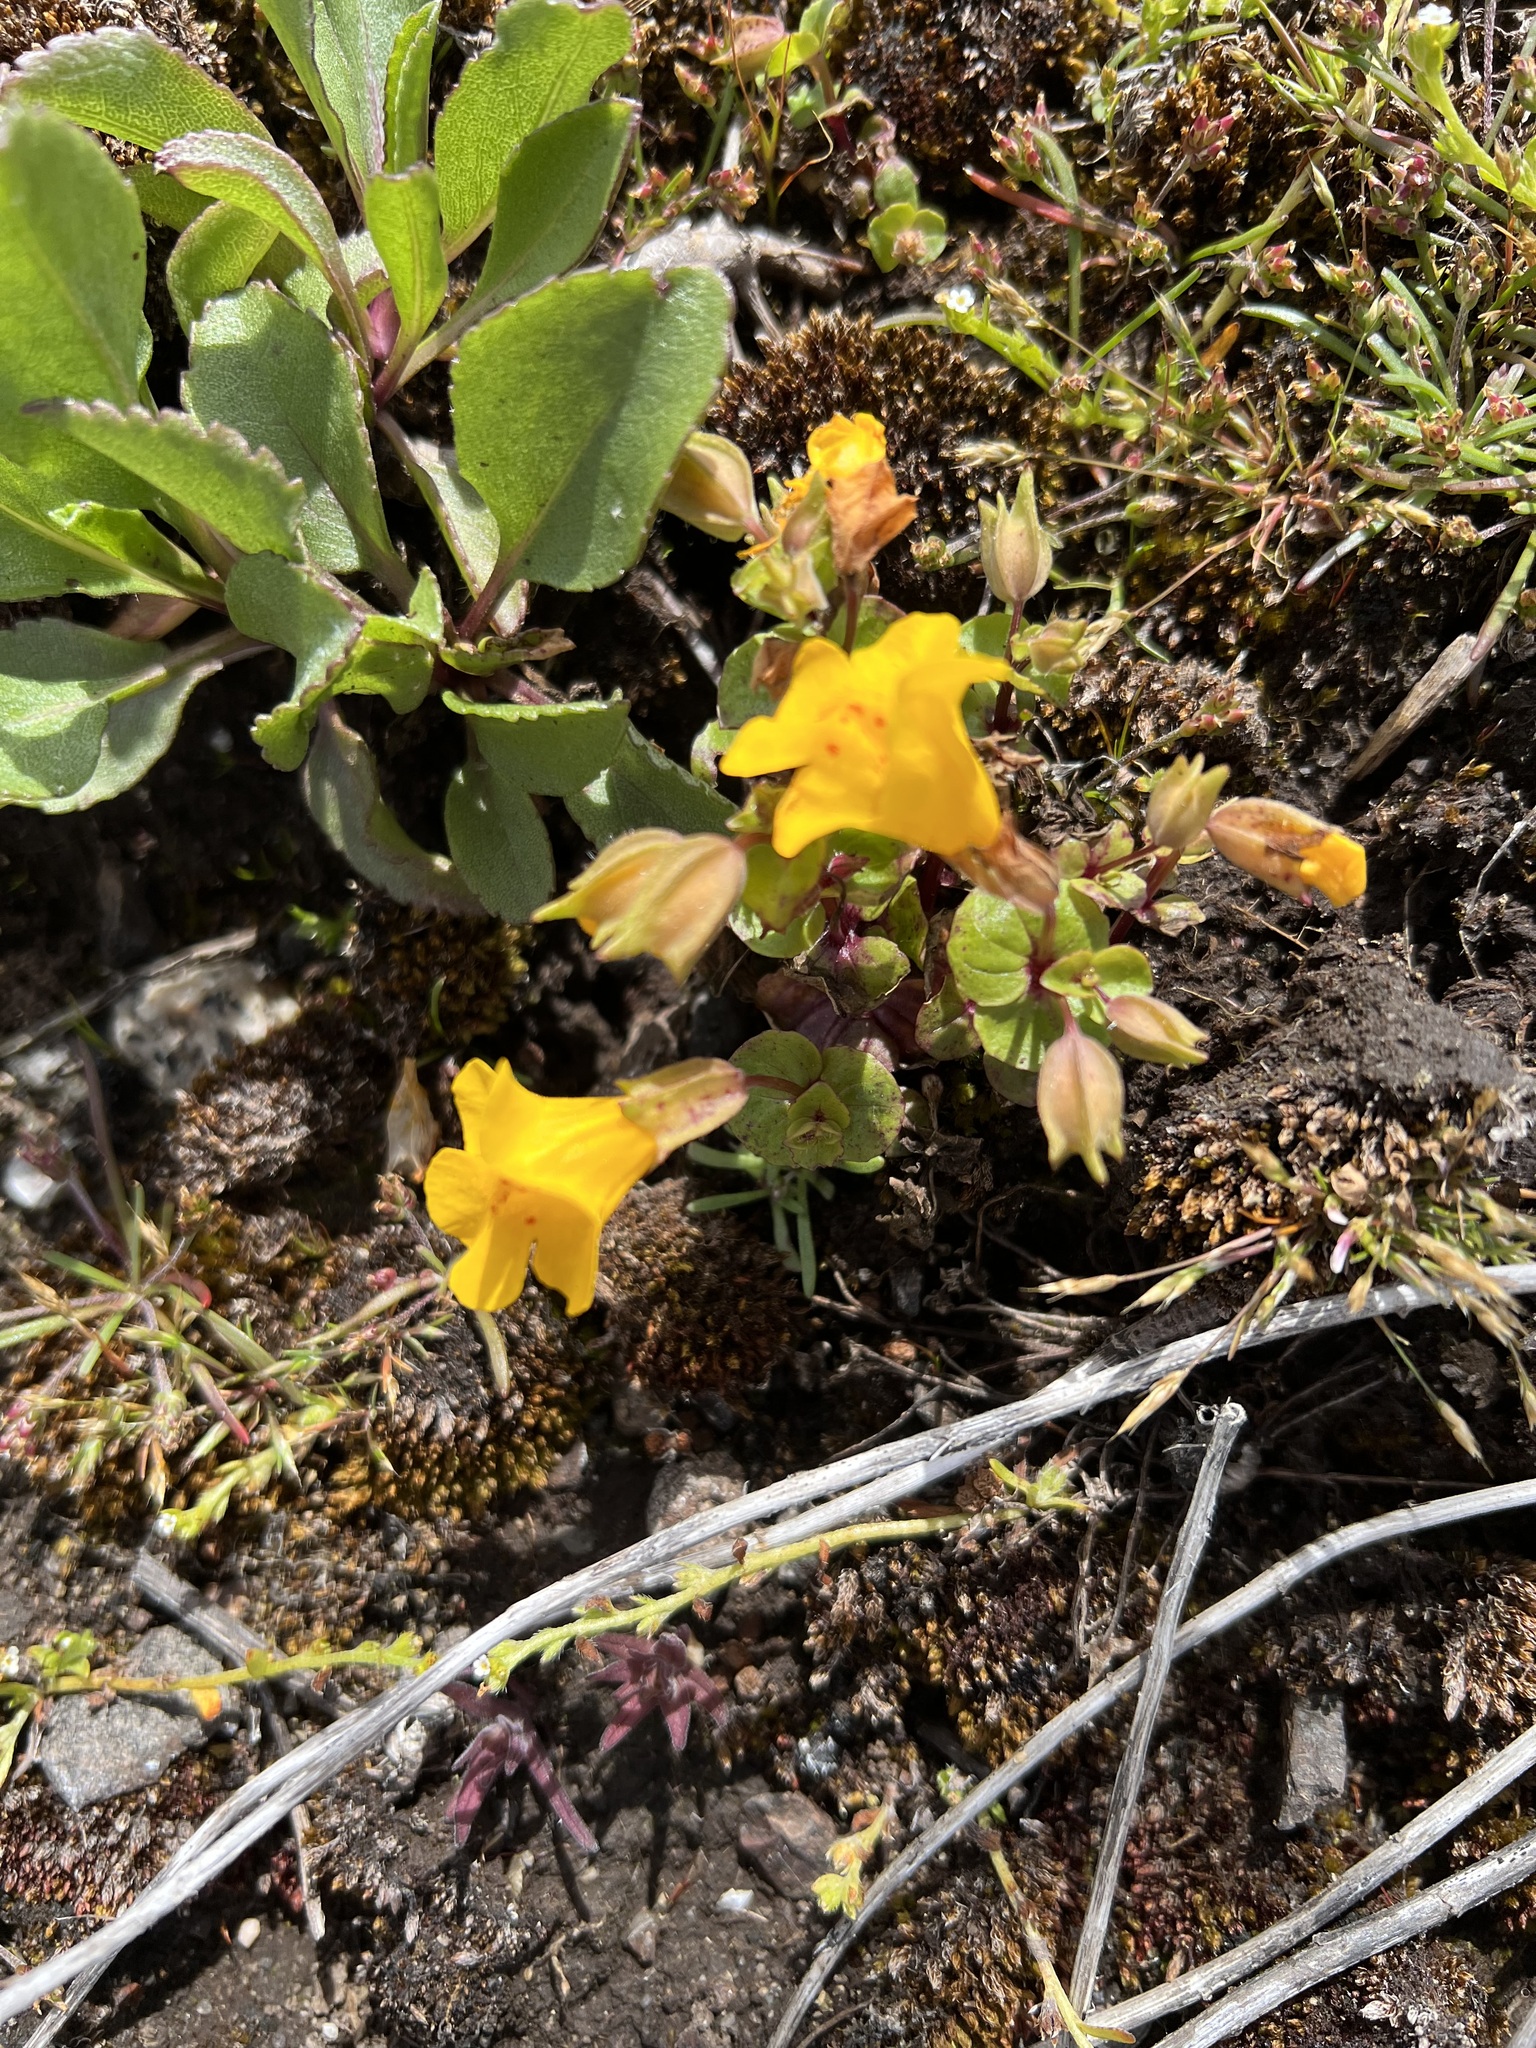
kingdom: Plantae
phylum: Tracheophyta
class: Magnoliopsida
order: Lamiales
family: Phrymaceae
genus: Erythranthe
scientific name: Erythranthe guttata
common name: Monkeyflower
